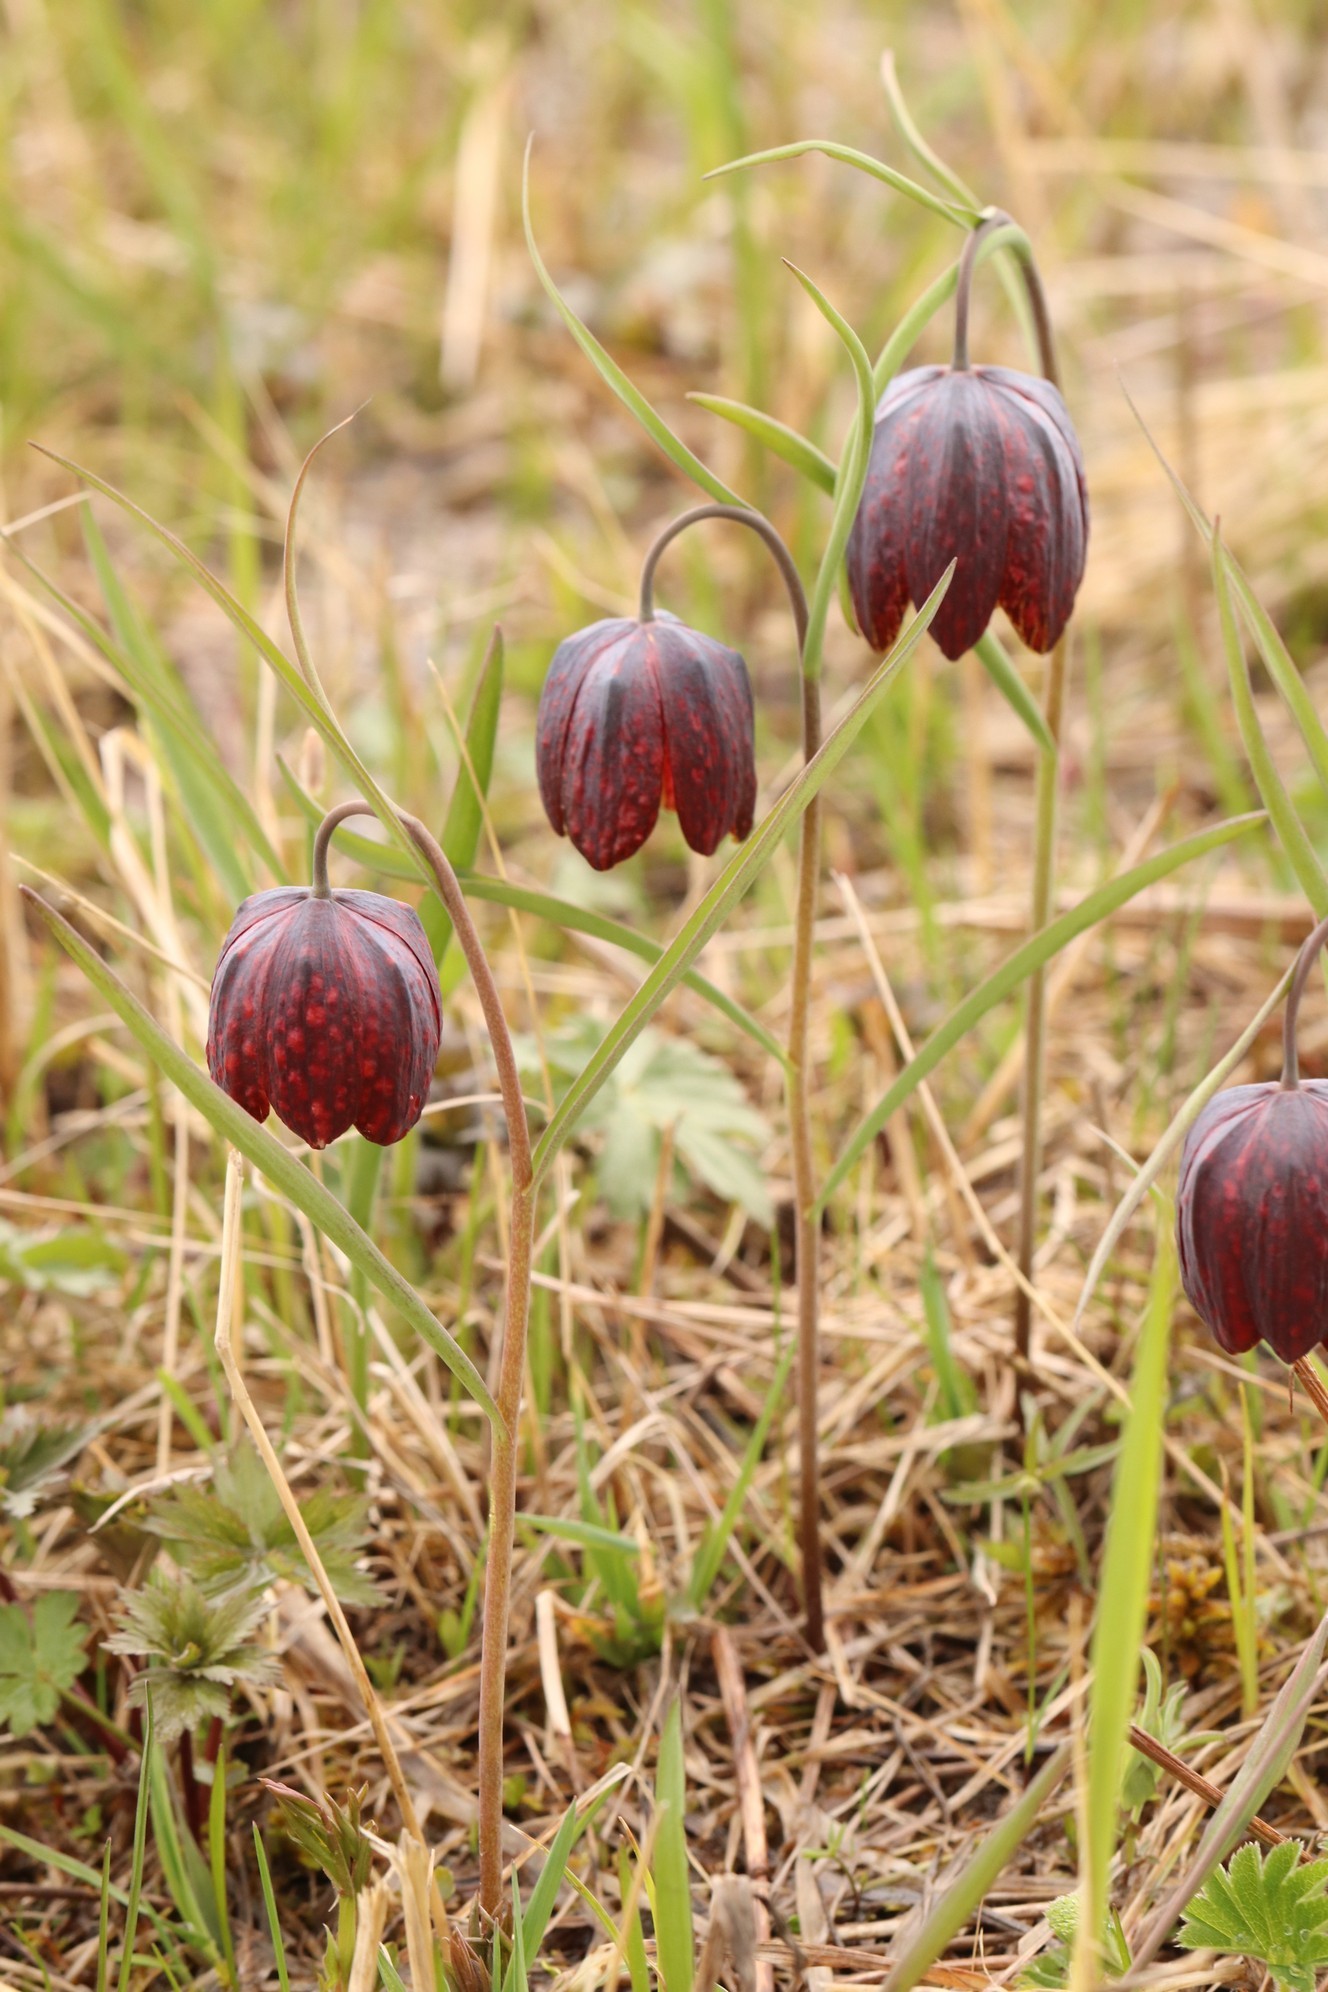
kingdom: Plantae
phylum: Tracheophyta
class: Liliopsida
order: Liliales
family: Liliaceae
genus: Fritillaria
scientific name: Fritillaria meleagris
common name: Fritillary
